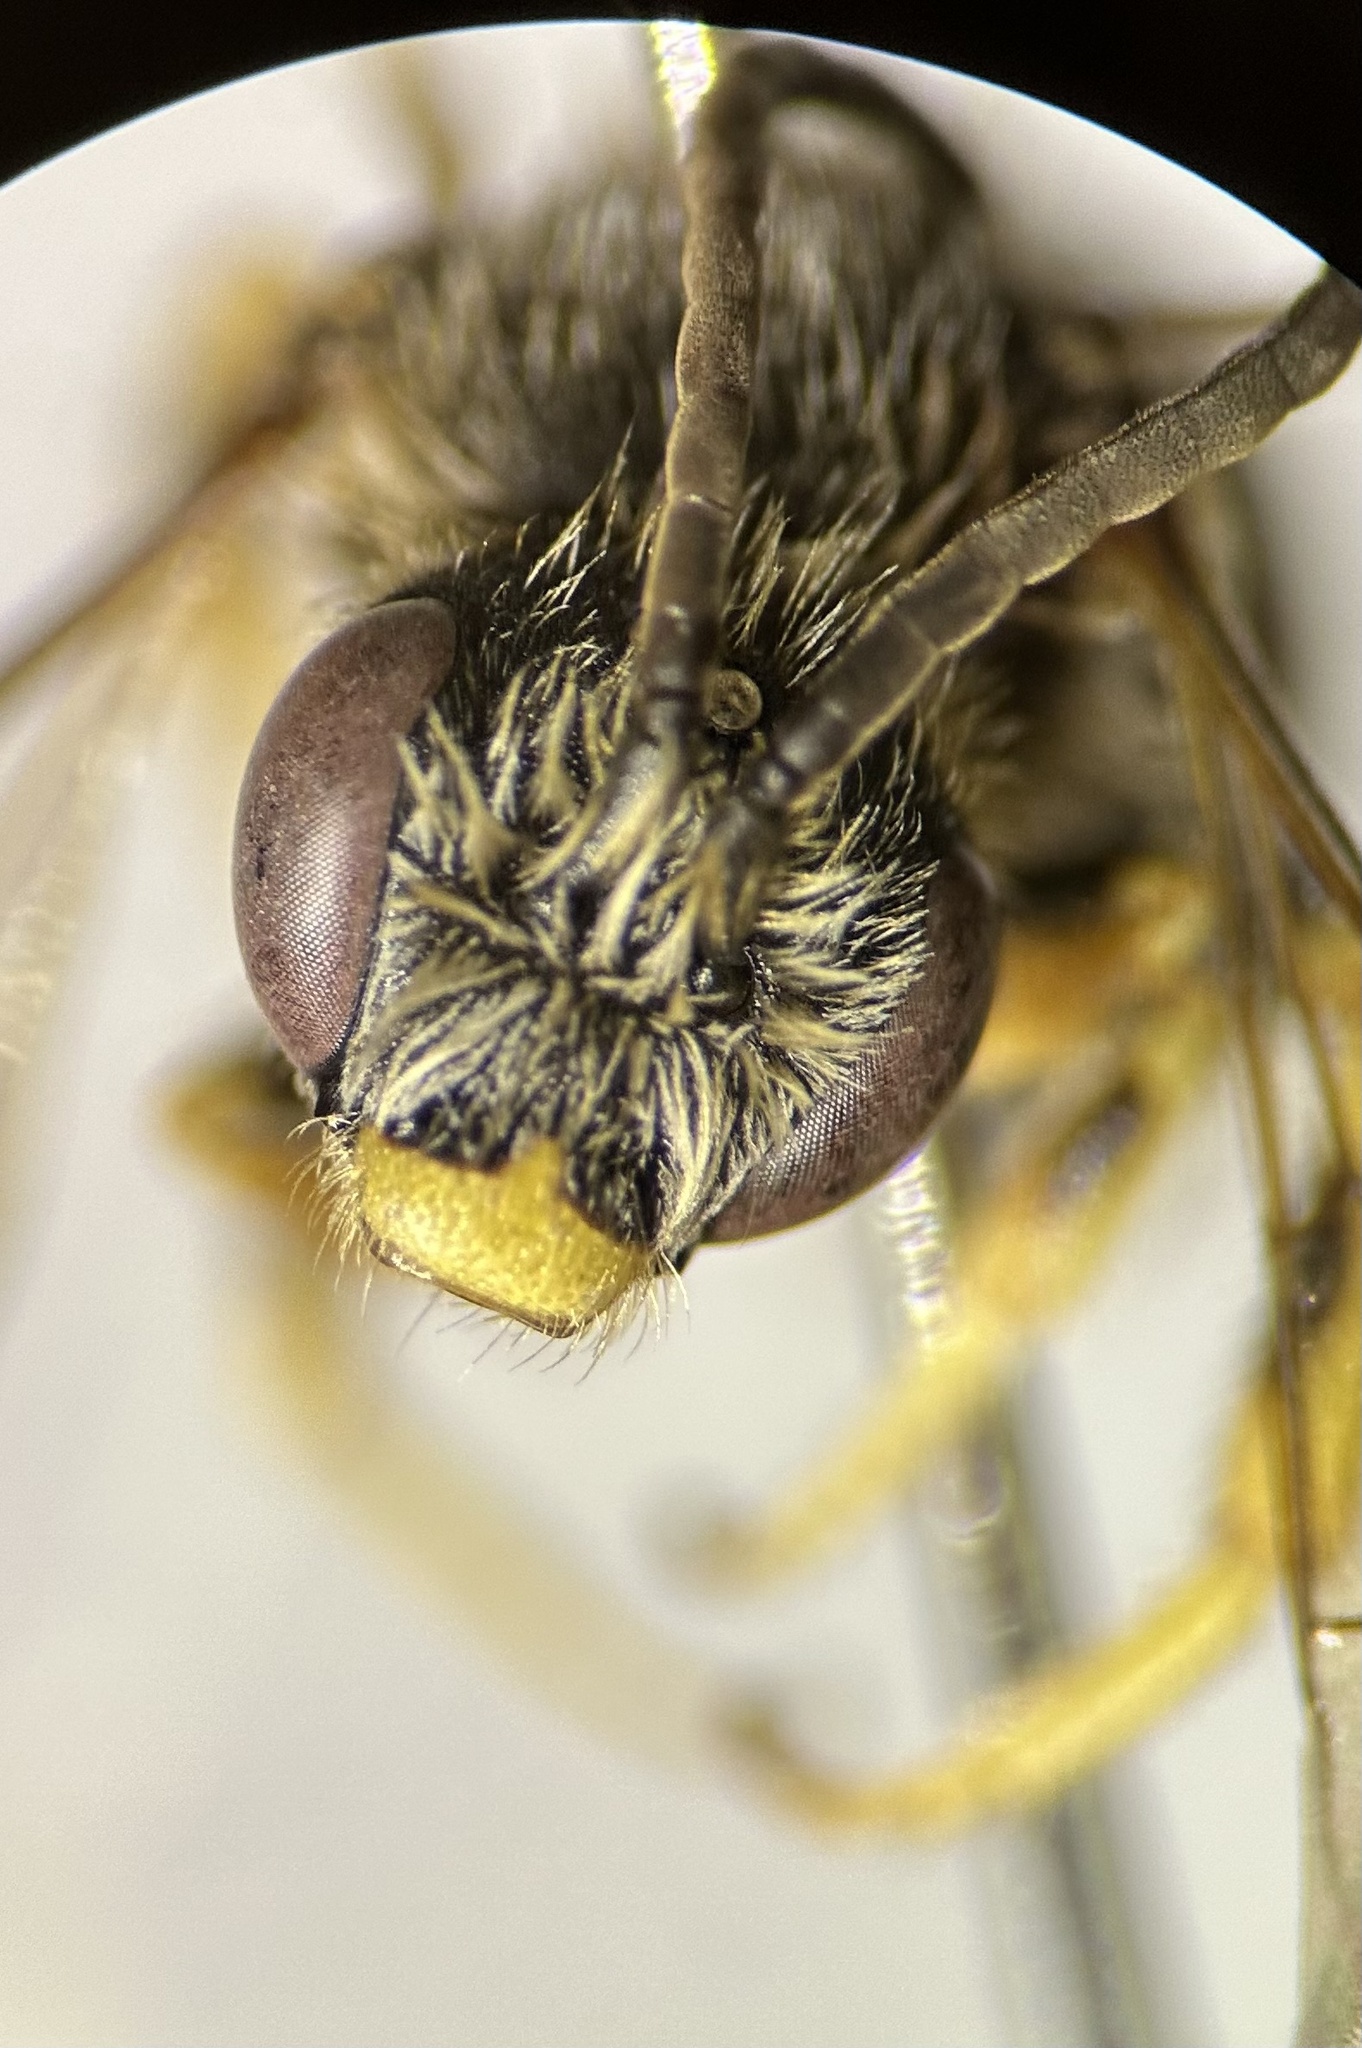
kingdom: Animalia
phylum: Arthropoda
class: Insecta
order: Hymenoptera
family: Halictidae
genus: Halictus
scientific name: Halictus rubicundus
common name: Orange-legged furrow bee
